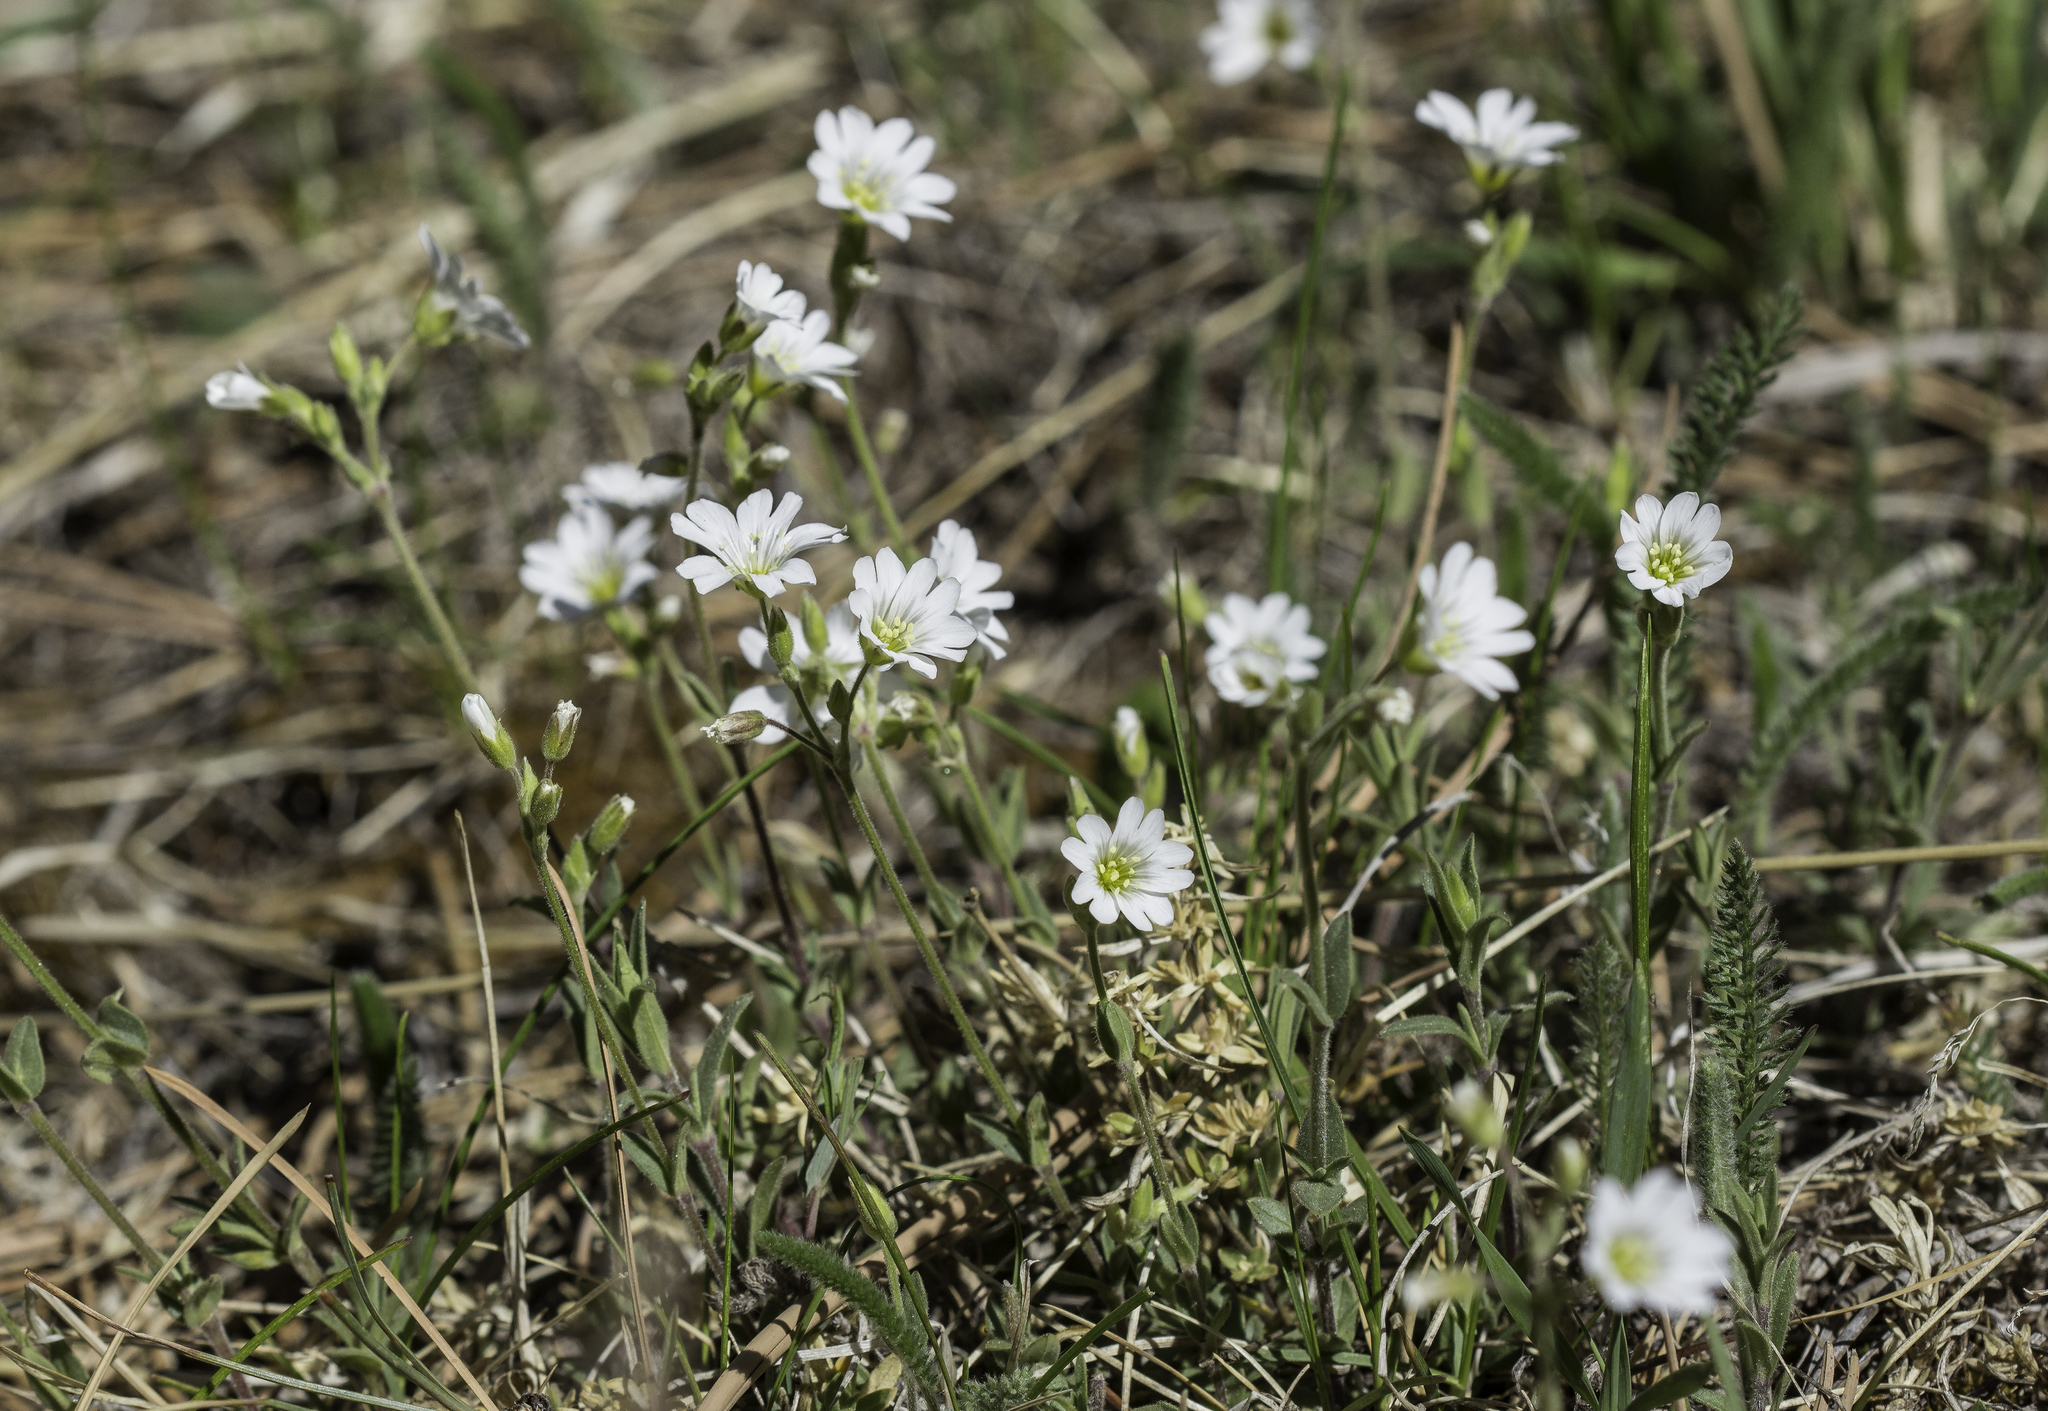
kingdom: Plantae
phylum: Tracheophyta
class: Magnoliopsida
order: Caryophyllales
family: Caryophyllaceae
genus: Cerastium
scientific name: Cerastium arvense
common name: Field mouse-ear
